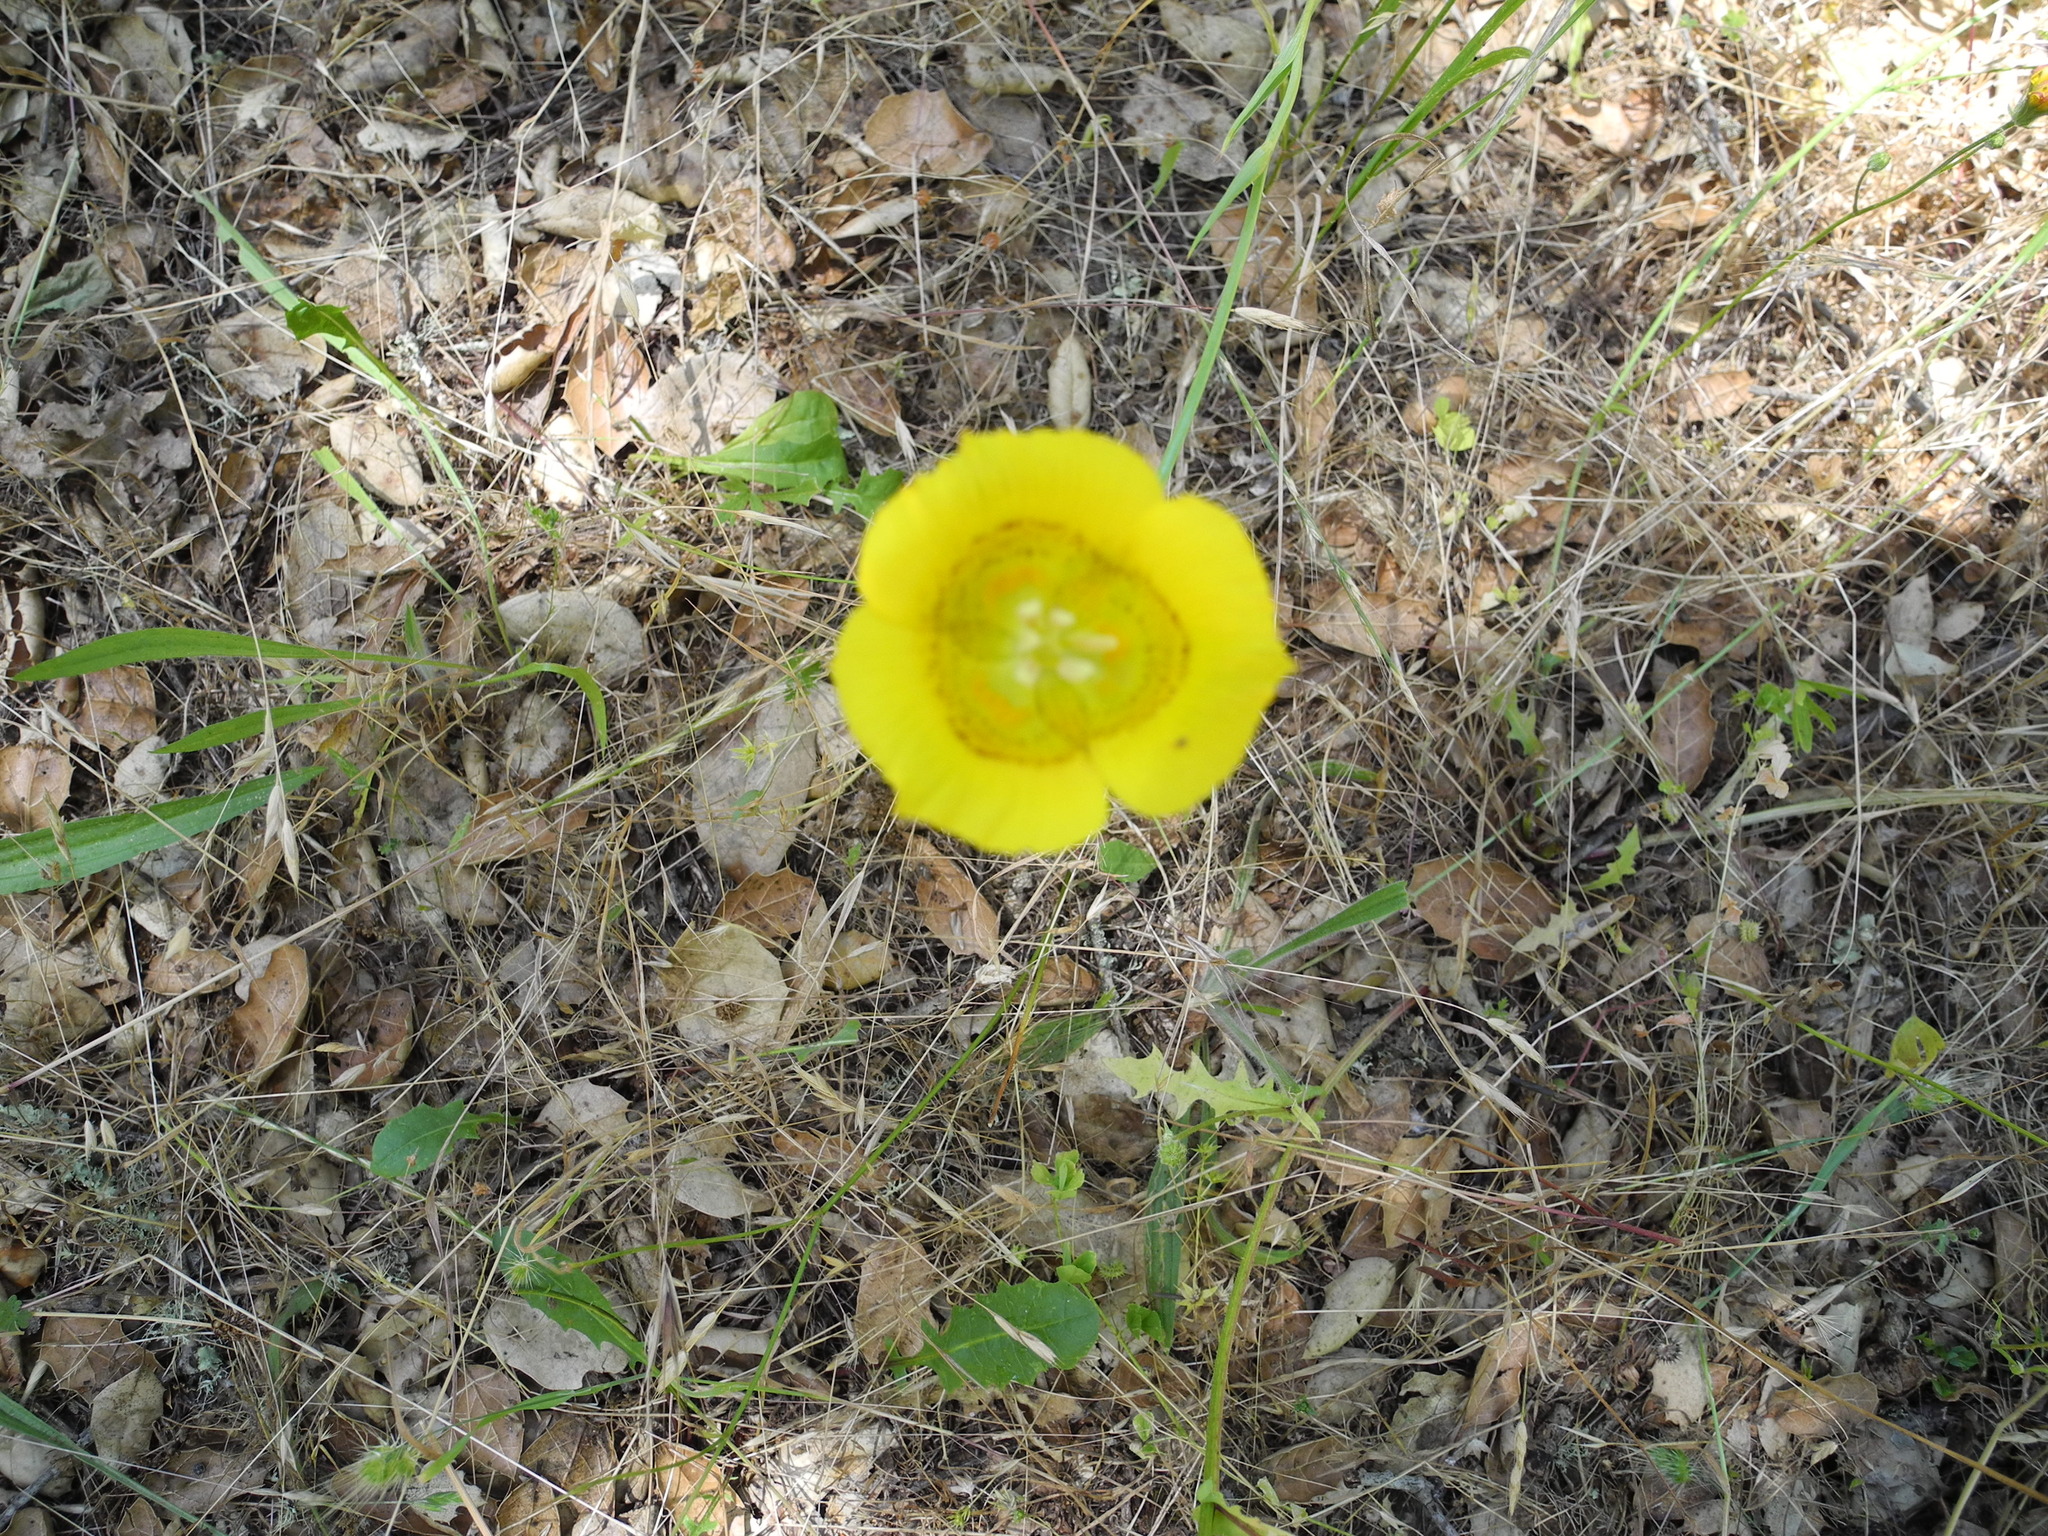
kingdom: Plantae
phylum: Tracheophyta
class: Liliopsida
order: Liliales
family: Liliaceae
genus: Calochortus
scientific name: Calochortus luteus
